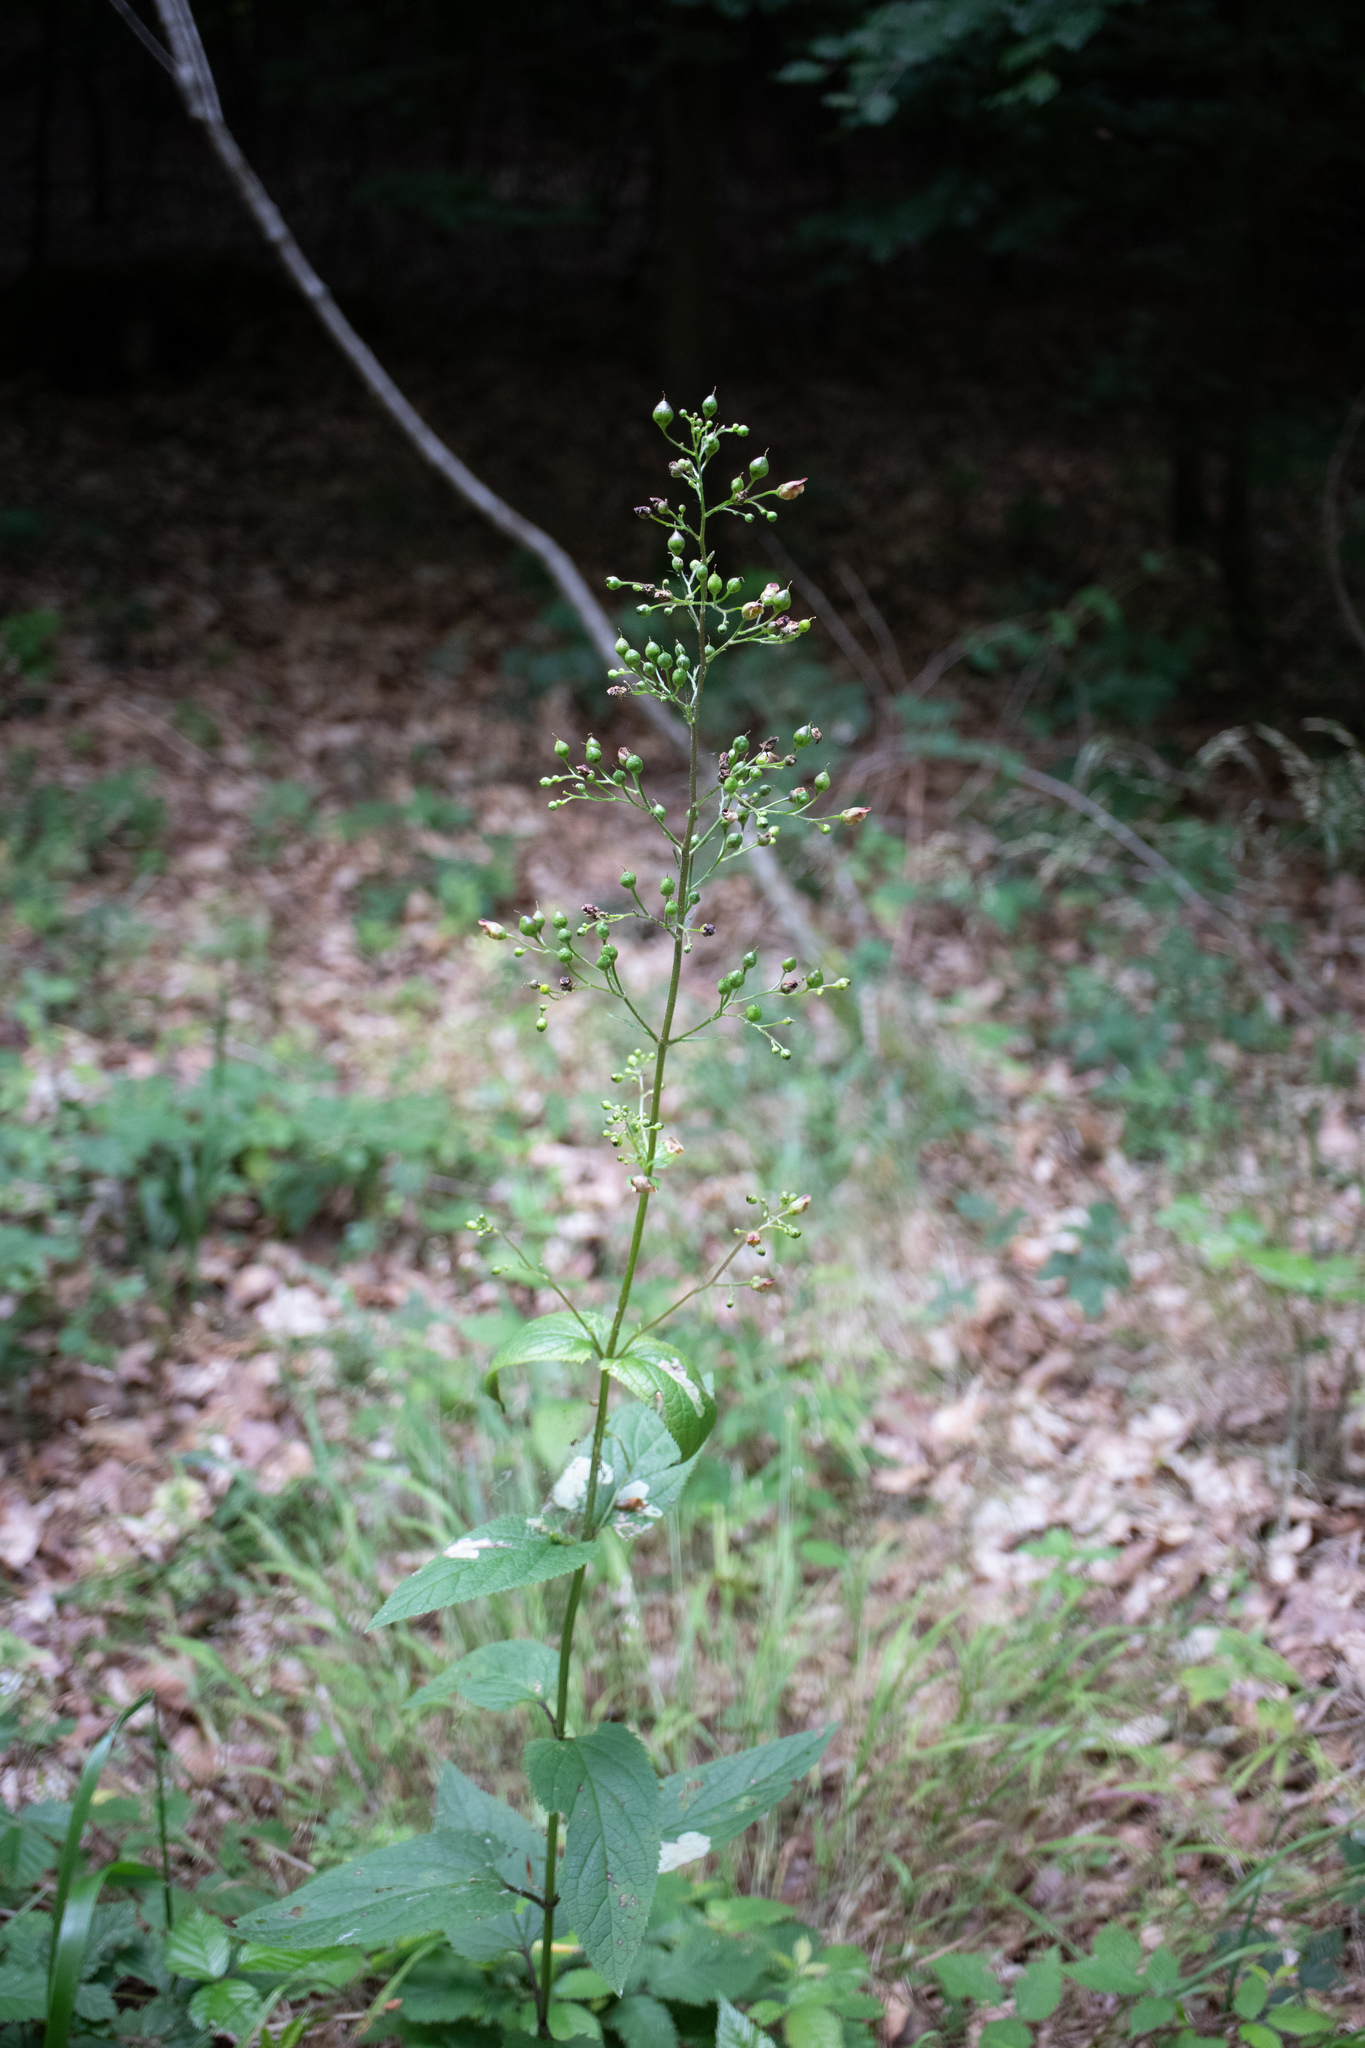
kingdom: Plantae
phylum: Tracheophyta
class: Magnoliopsida
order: Lamiales
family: Scrophulariaceae
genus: Scrophularia
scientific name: Scrophularia nodosa
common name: Common figwort
